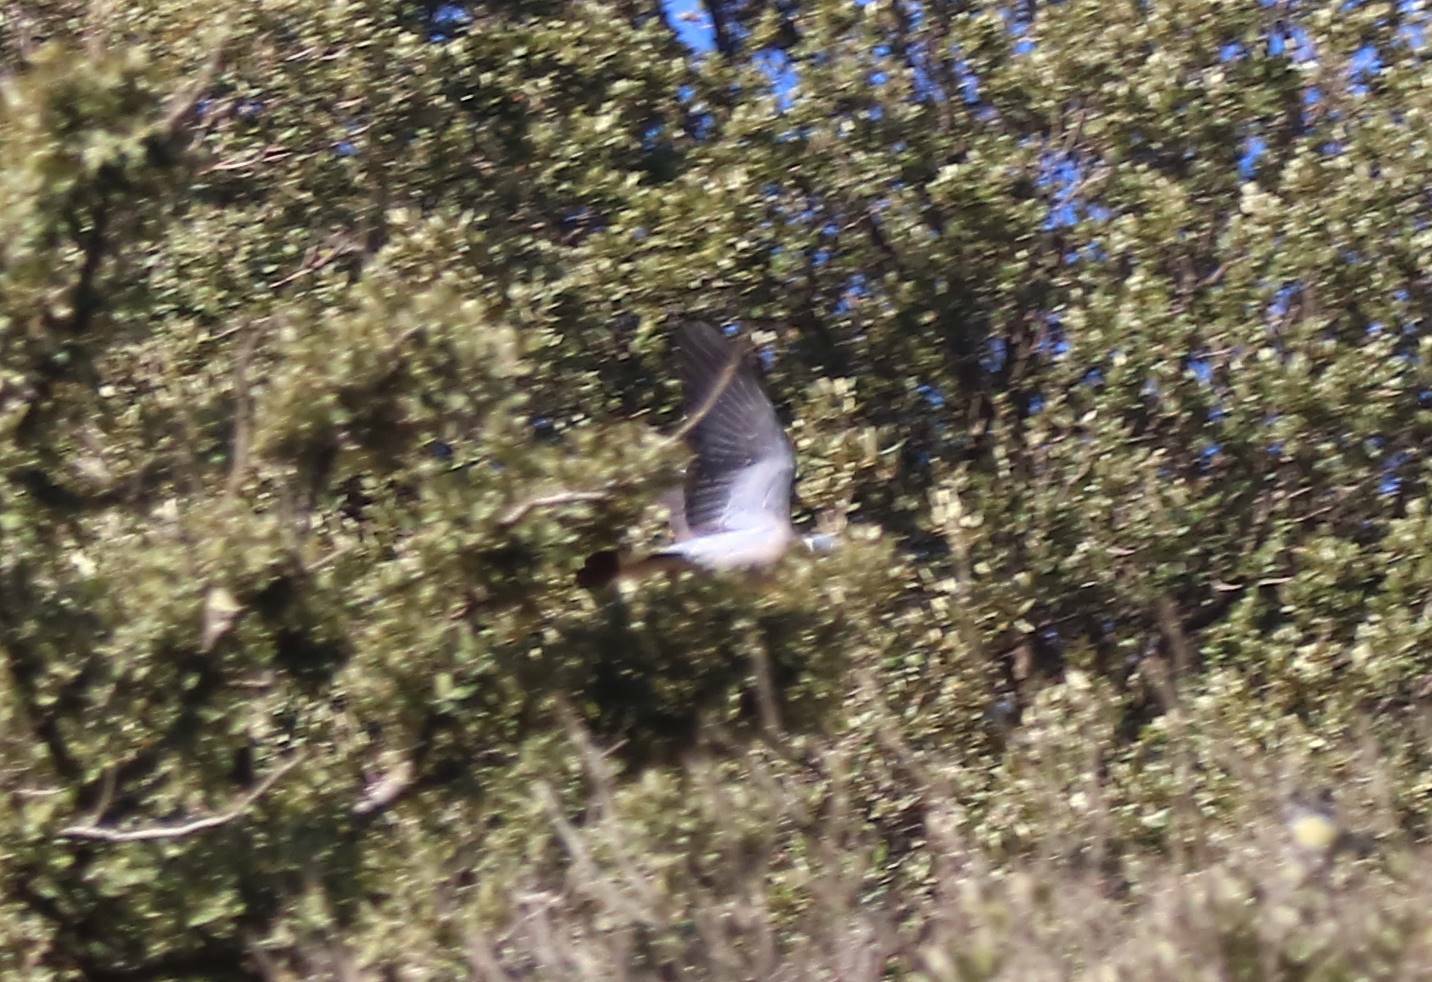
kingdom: Animalia
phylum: Chordata
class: Aves
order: Columbiformes
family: Columbidae
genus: Columba
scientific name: Columba palumbus
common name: Common wood pigeon
